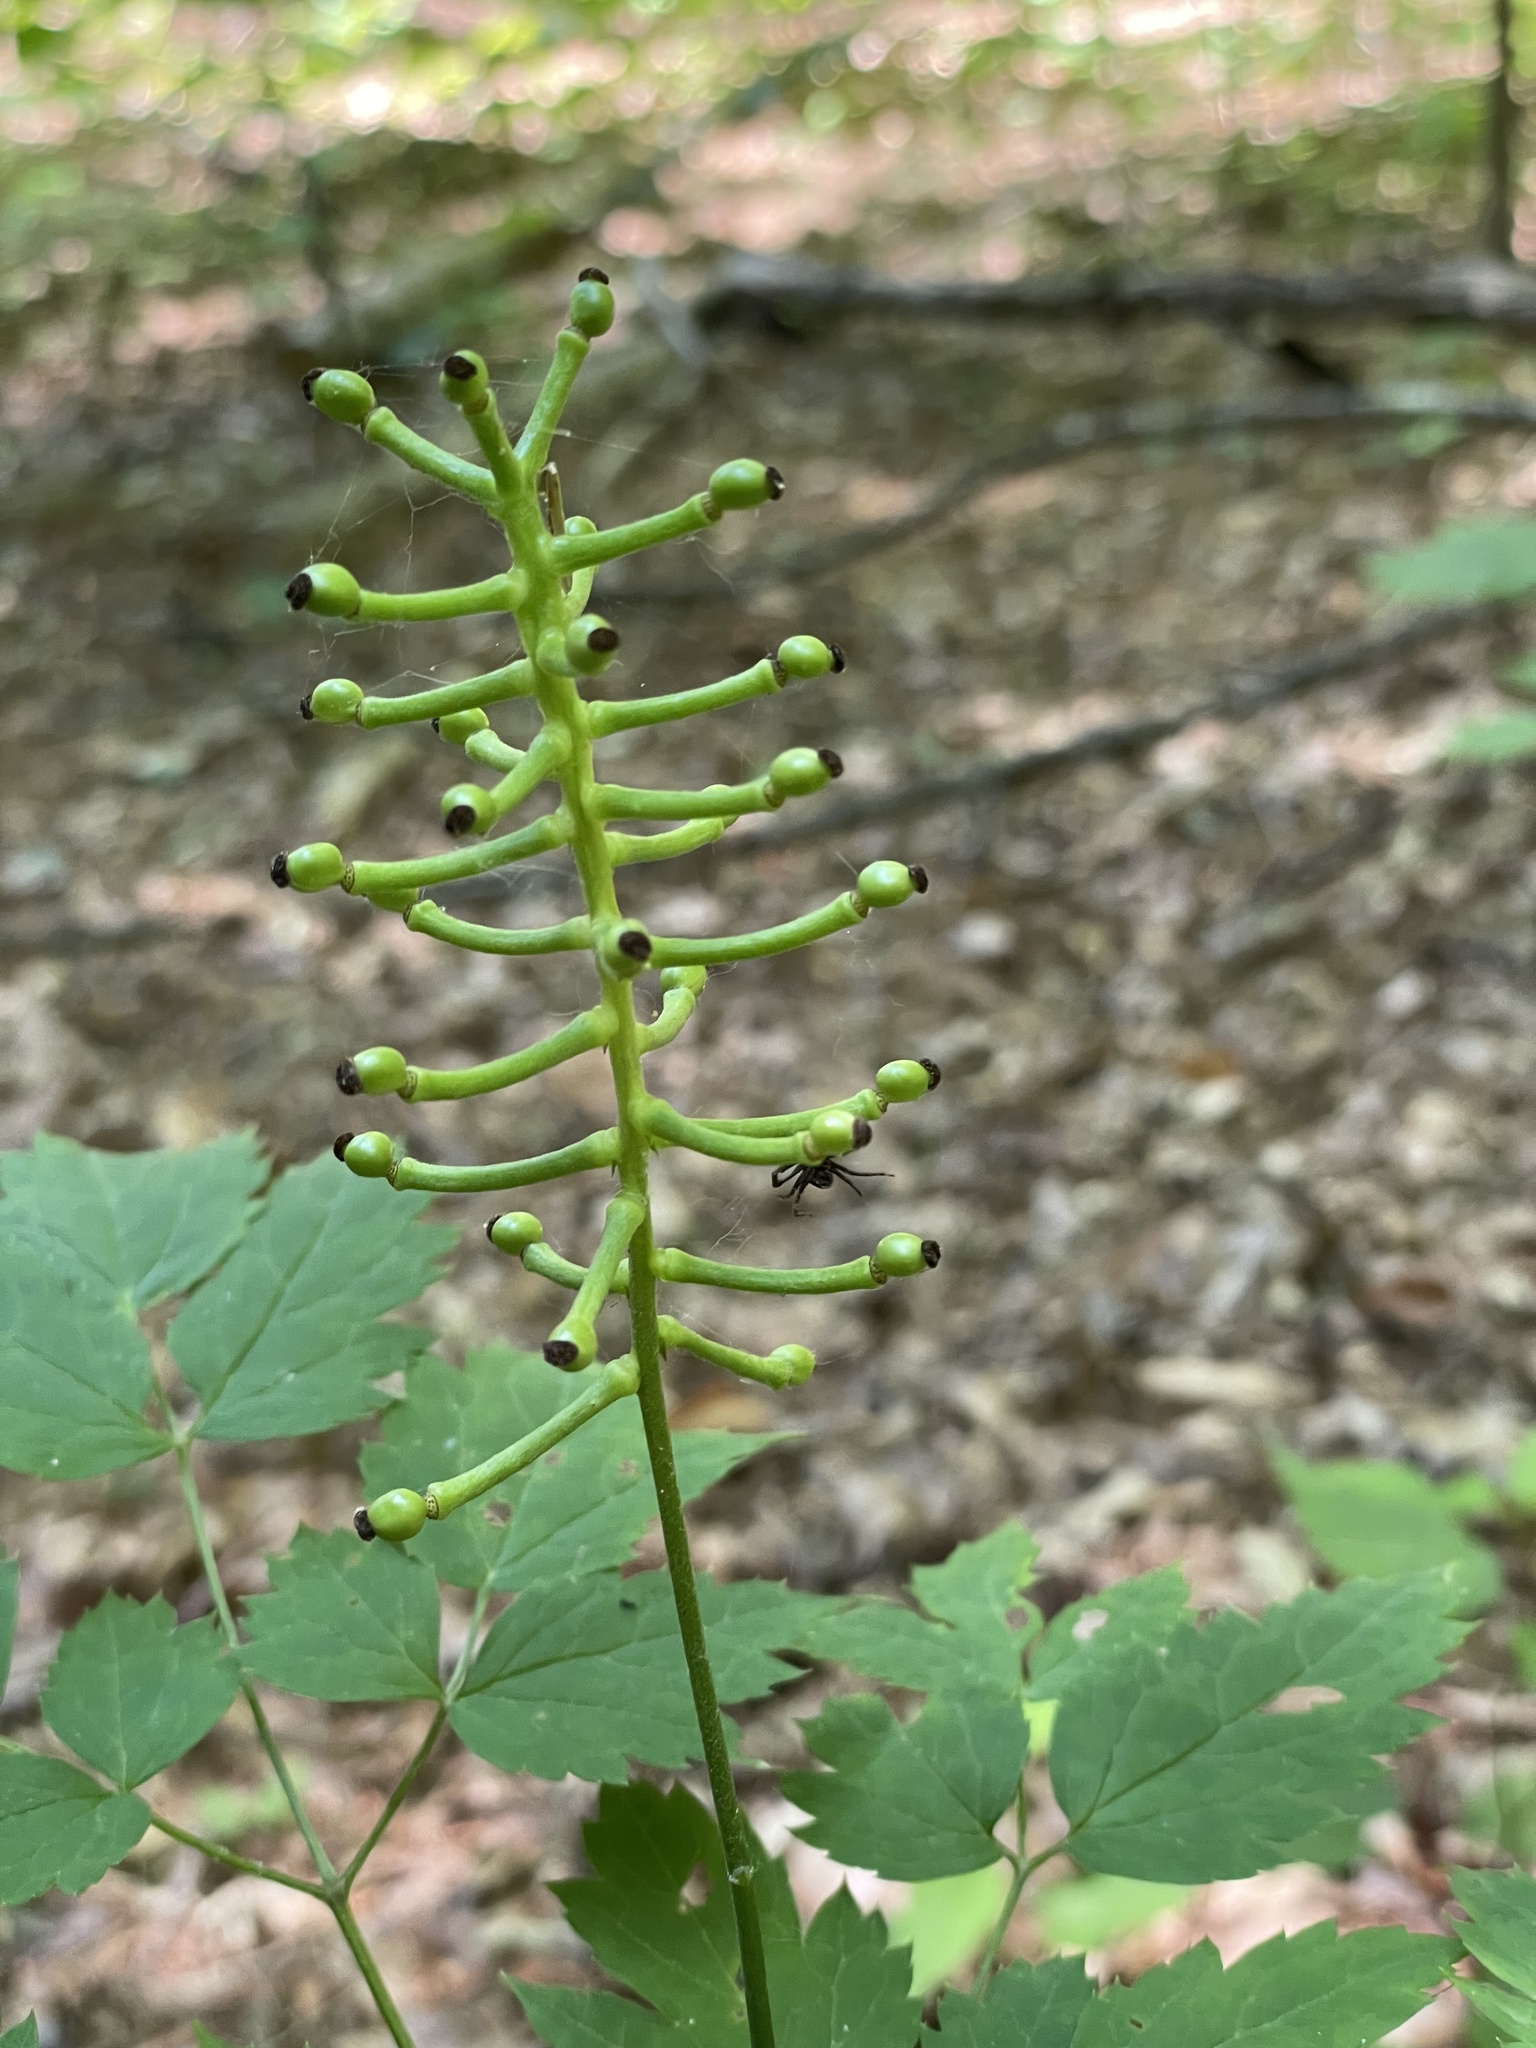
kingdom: Plantae
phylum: Tracheophyta
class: Magnoliopsida
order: Ranunculales
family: Ranunculaceae
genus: Actaea
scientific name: Actaea pachypoda
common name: Doll's-eyes
